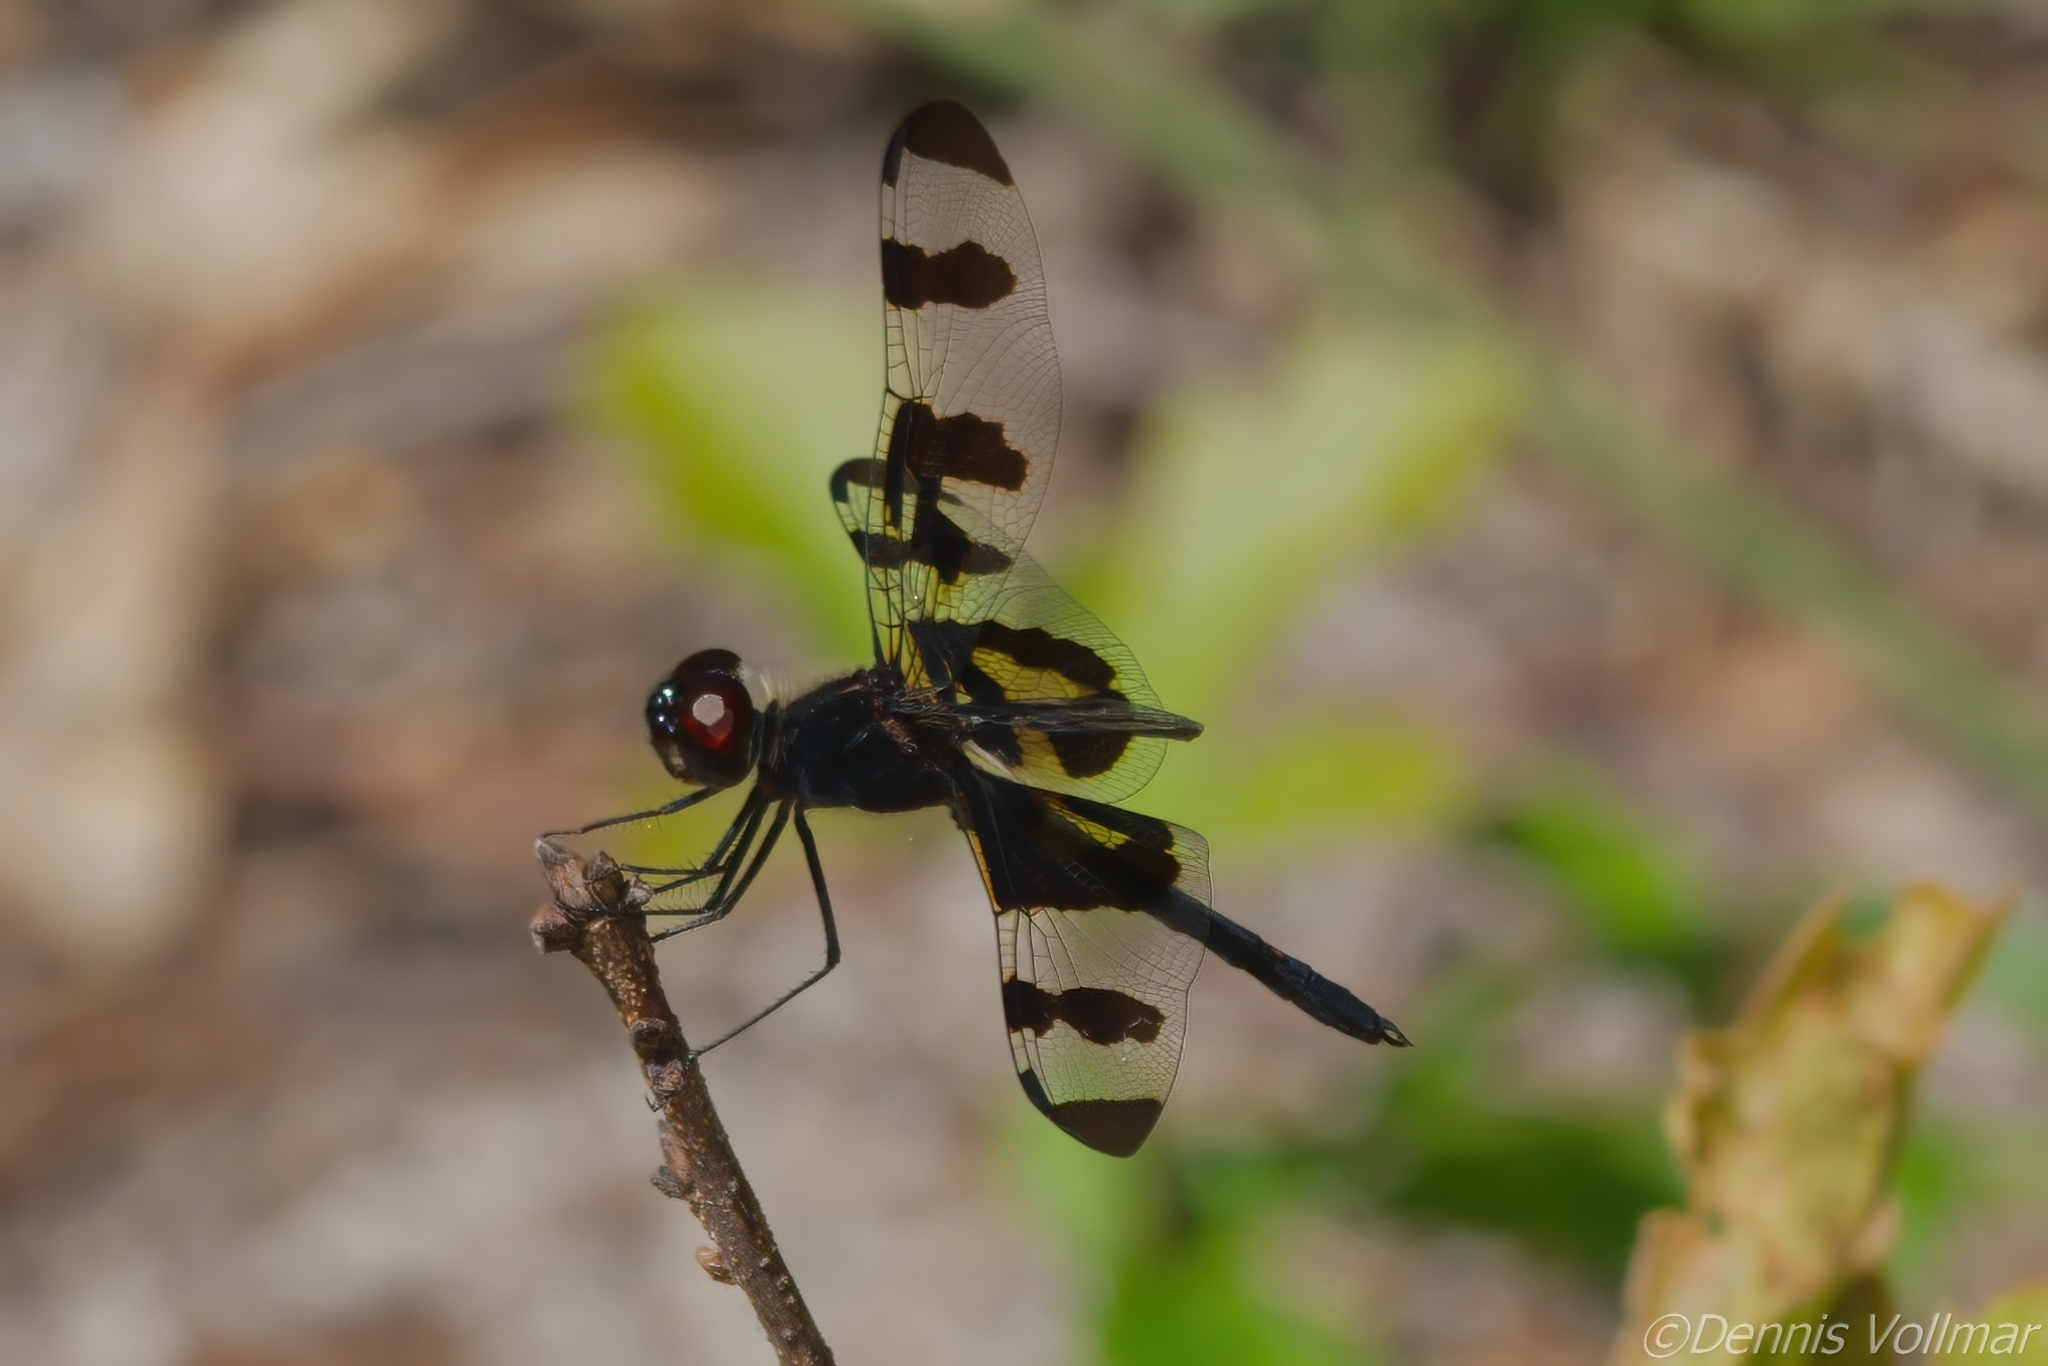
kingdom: Animalia
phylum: Arthropoda
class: Insecta
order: Odonata
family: Libellulidae
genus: Celithemis
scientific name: Celithemis fasciata
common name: Banded pennant
